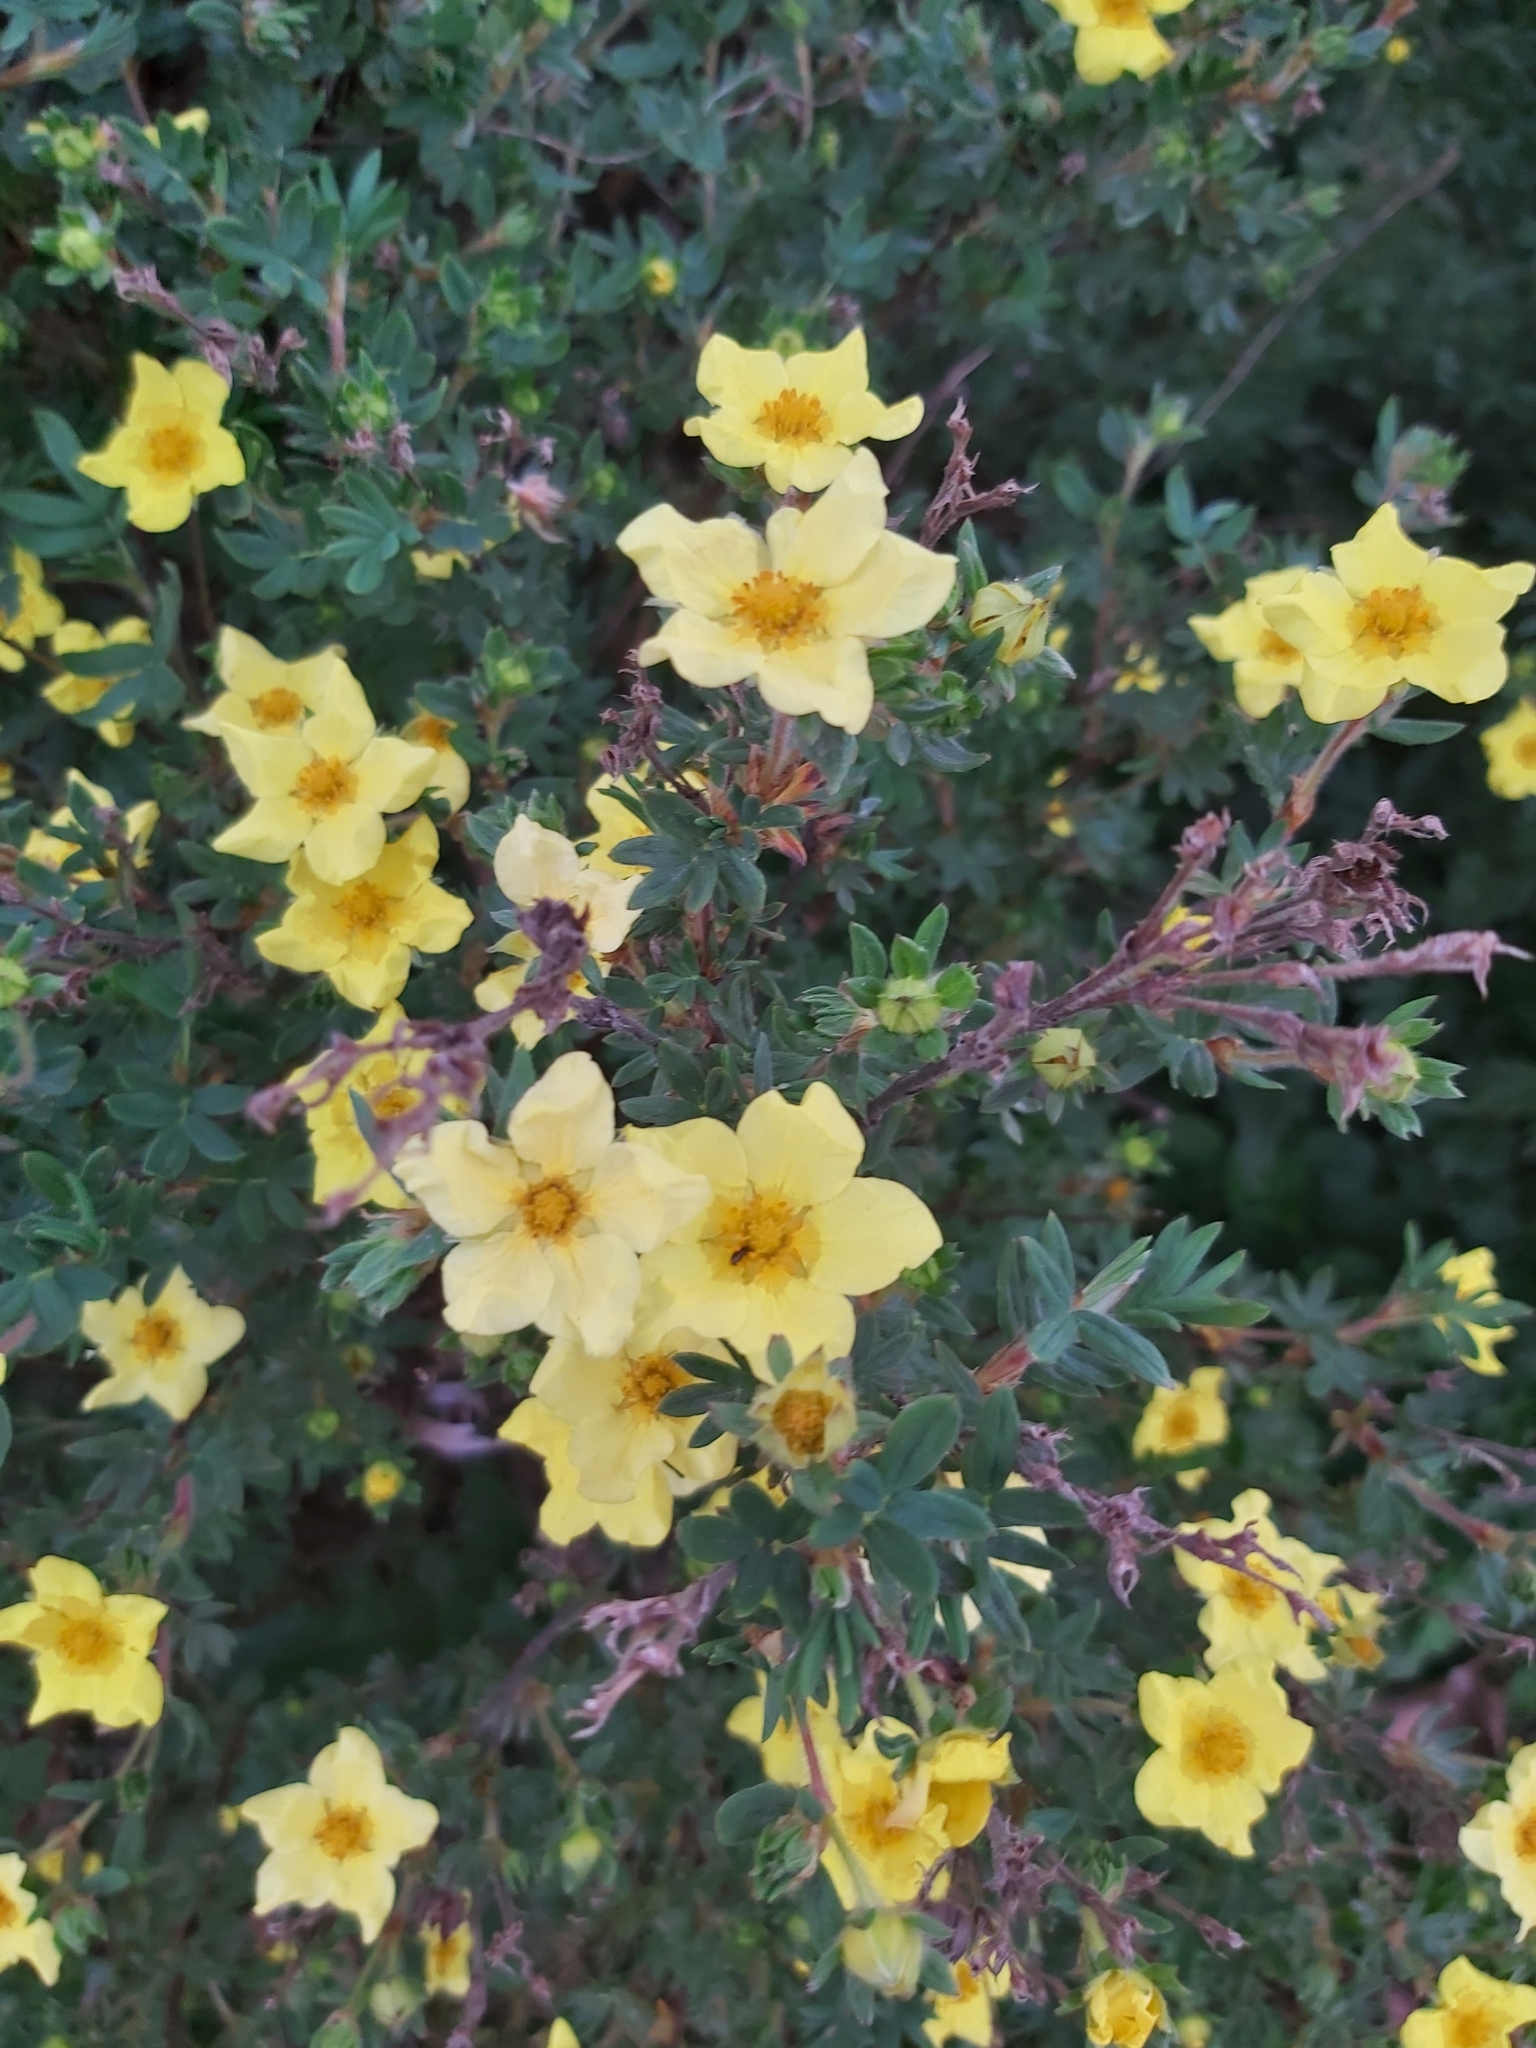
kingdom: Plantae
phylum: Tracheophyta
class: Magnoliopsida
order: Rosales
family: Rosaceae
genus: Dasiphora
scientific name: Dasiphora fruticosa
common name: Shrubby cinquefoil
